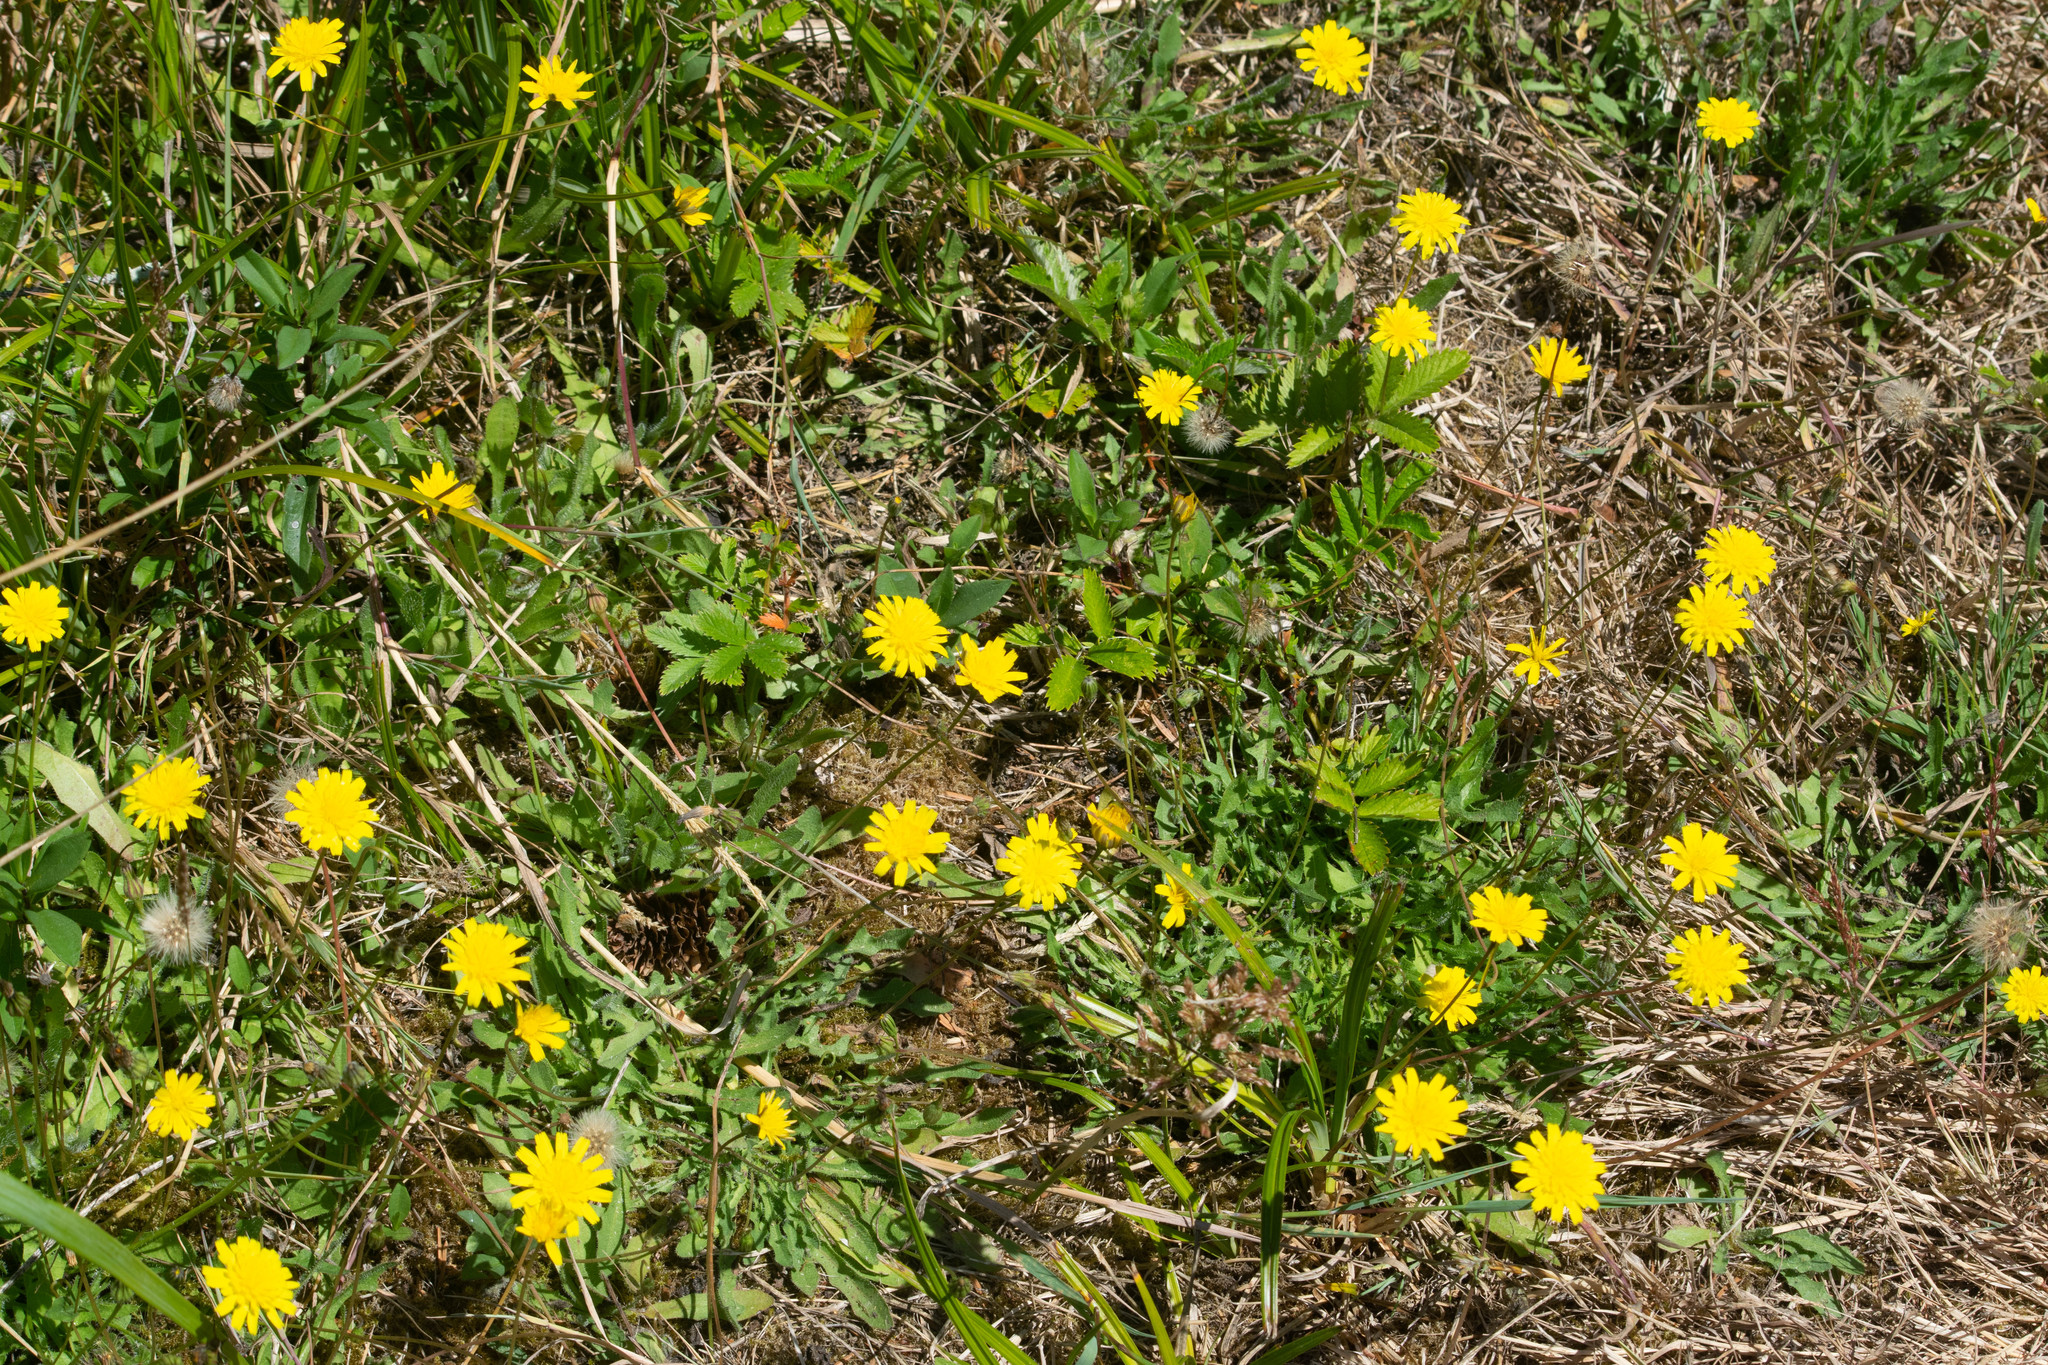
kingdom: Plantae
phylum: Tracheophyta
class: Magnoliopsida
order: Asterales
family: Asteraceae
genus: Taraxacum
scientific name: Taraxacum officinale
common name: Common dandelion
